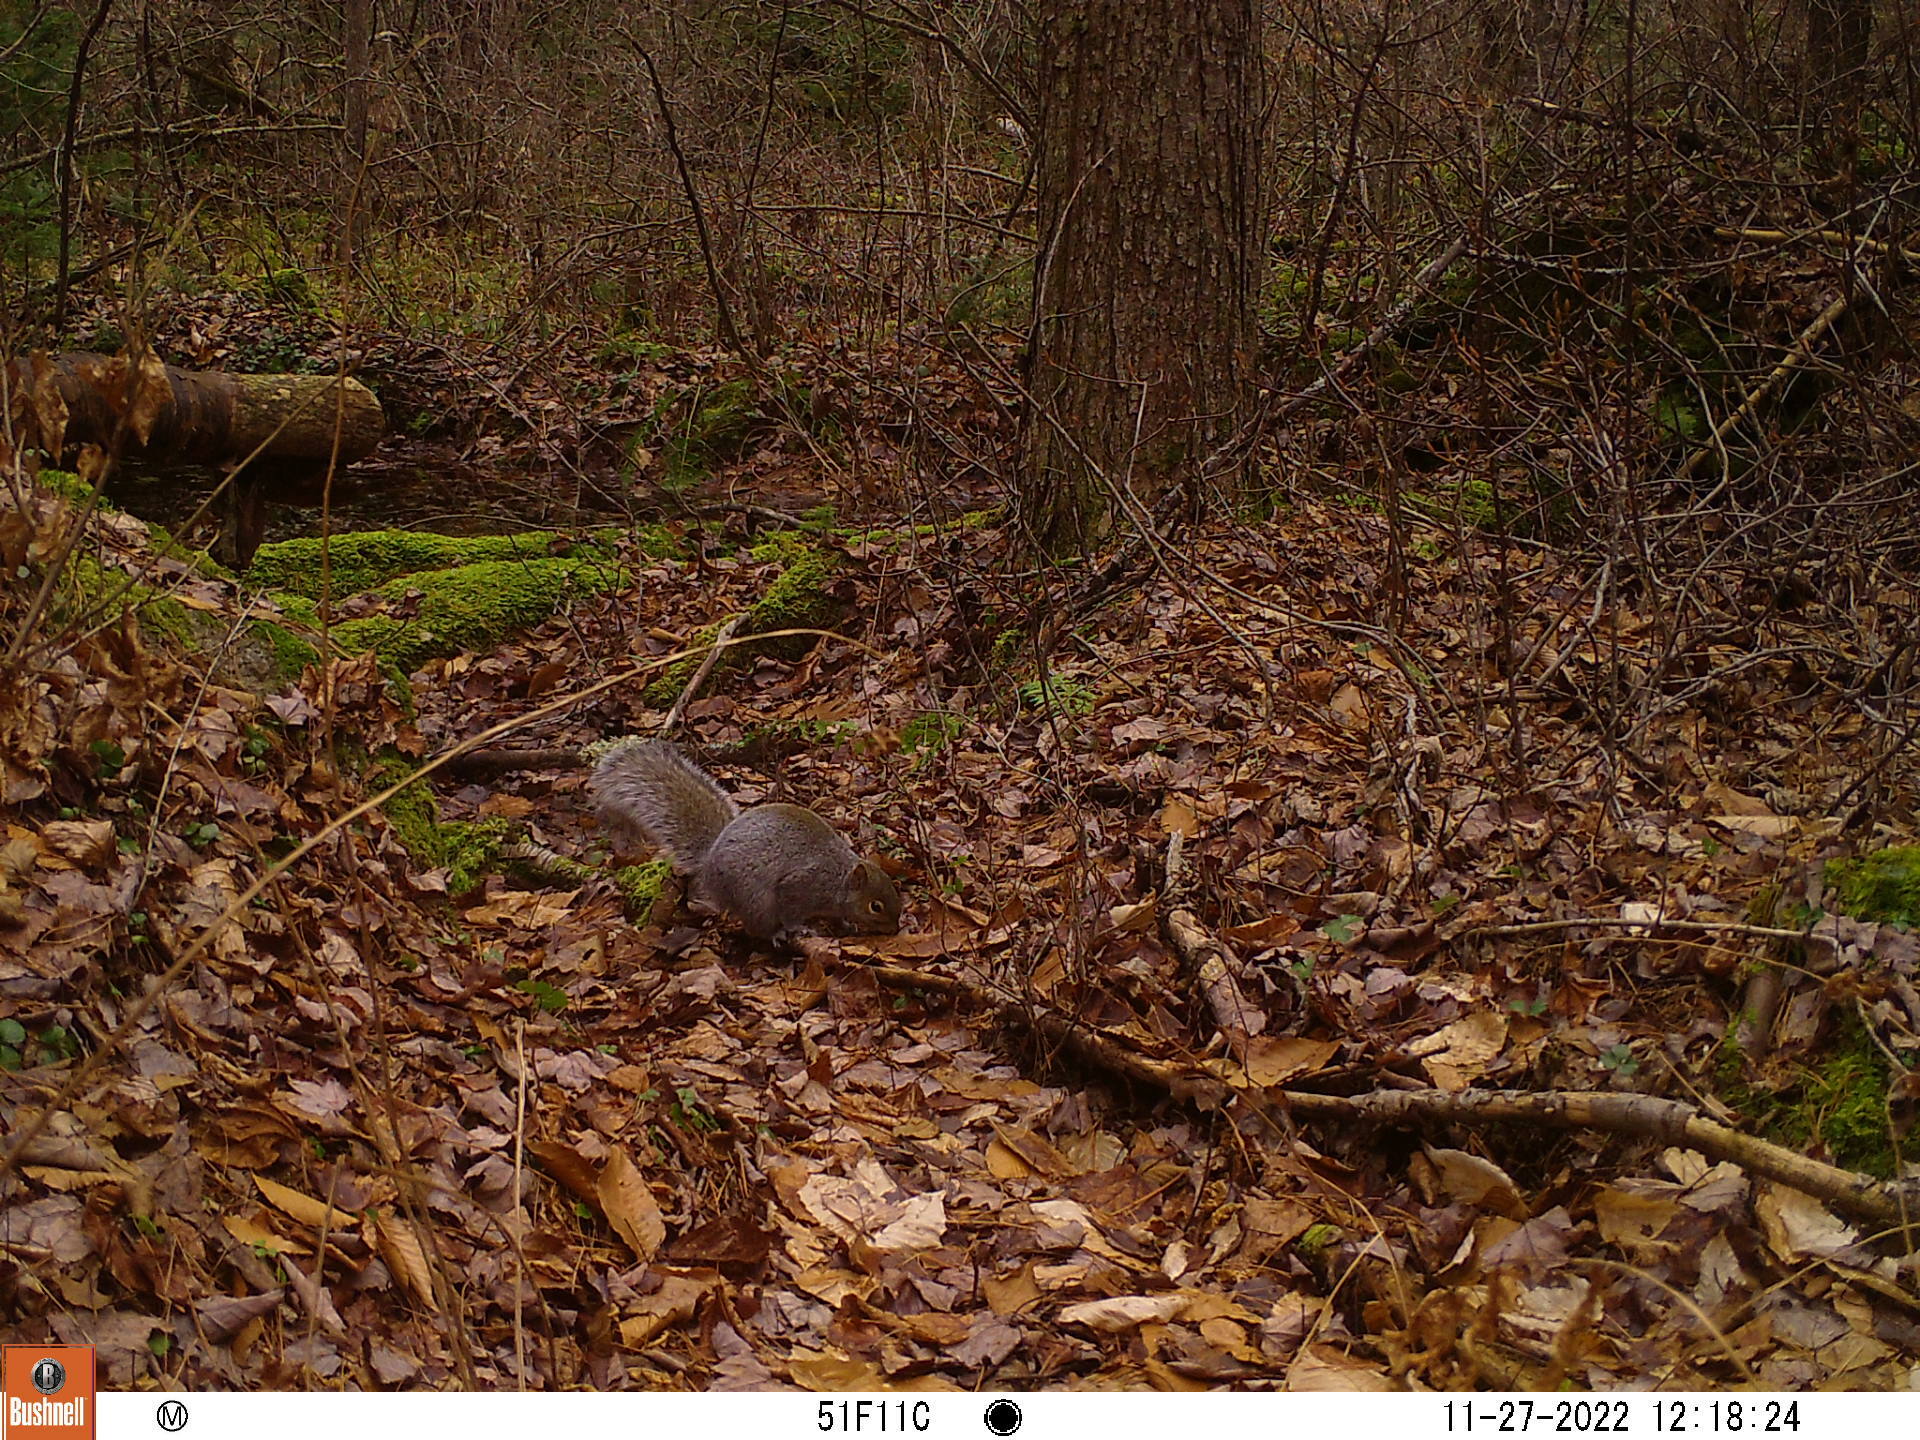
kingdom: Animalia
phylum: Chordata
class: Mammalia
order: Rodentia
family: Sciuridae
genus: Sciurus
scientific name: Sciurus carolinensis
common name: Eastern gray squirrel
